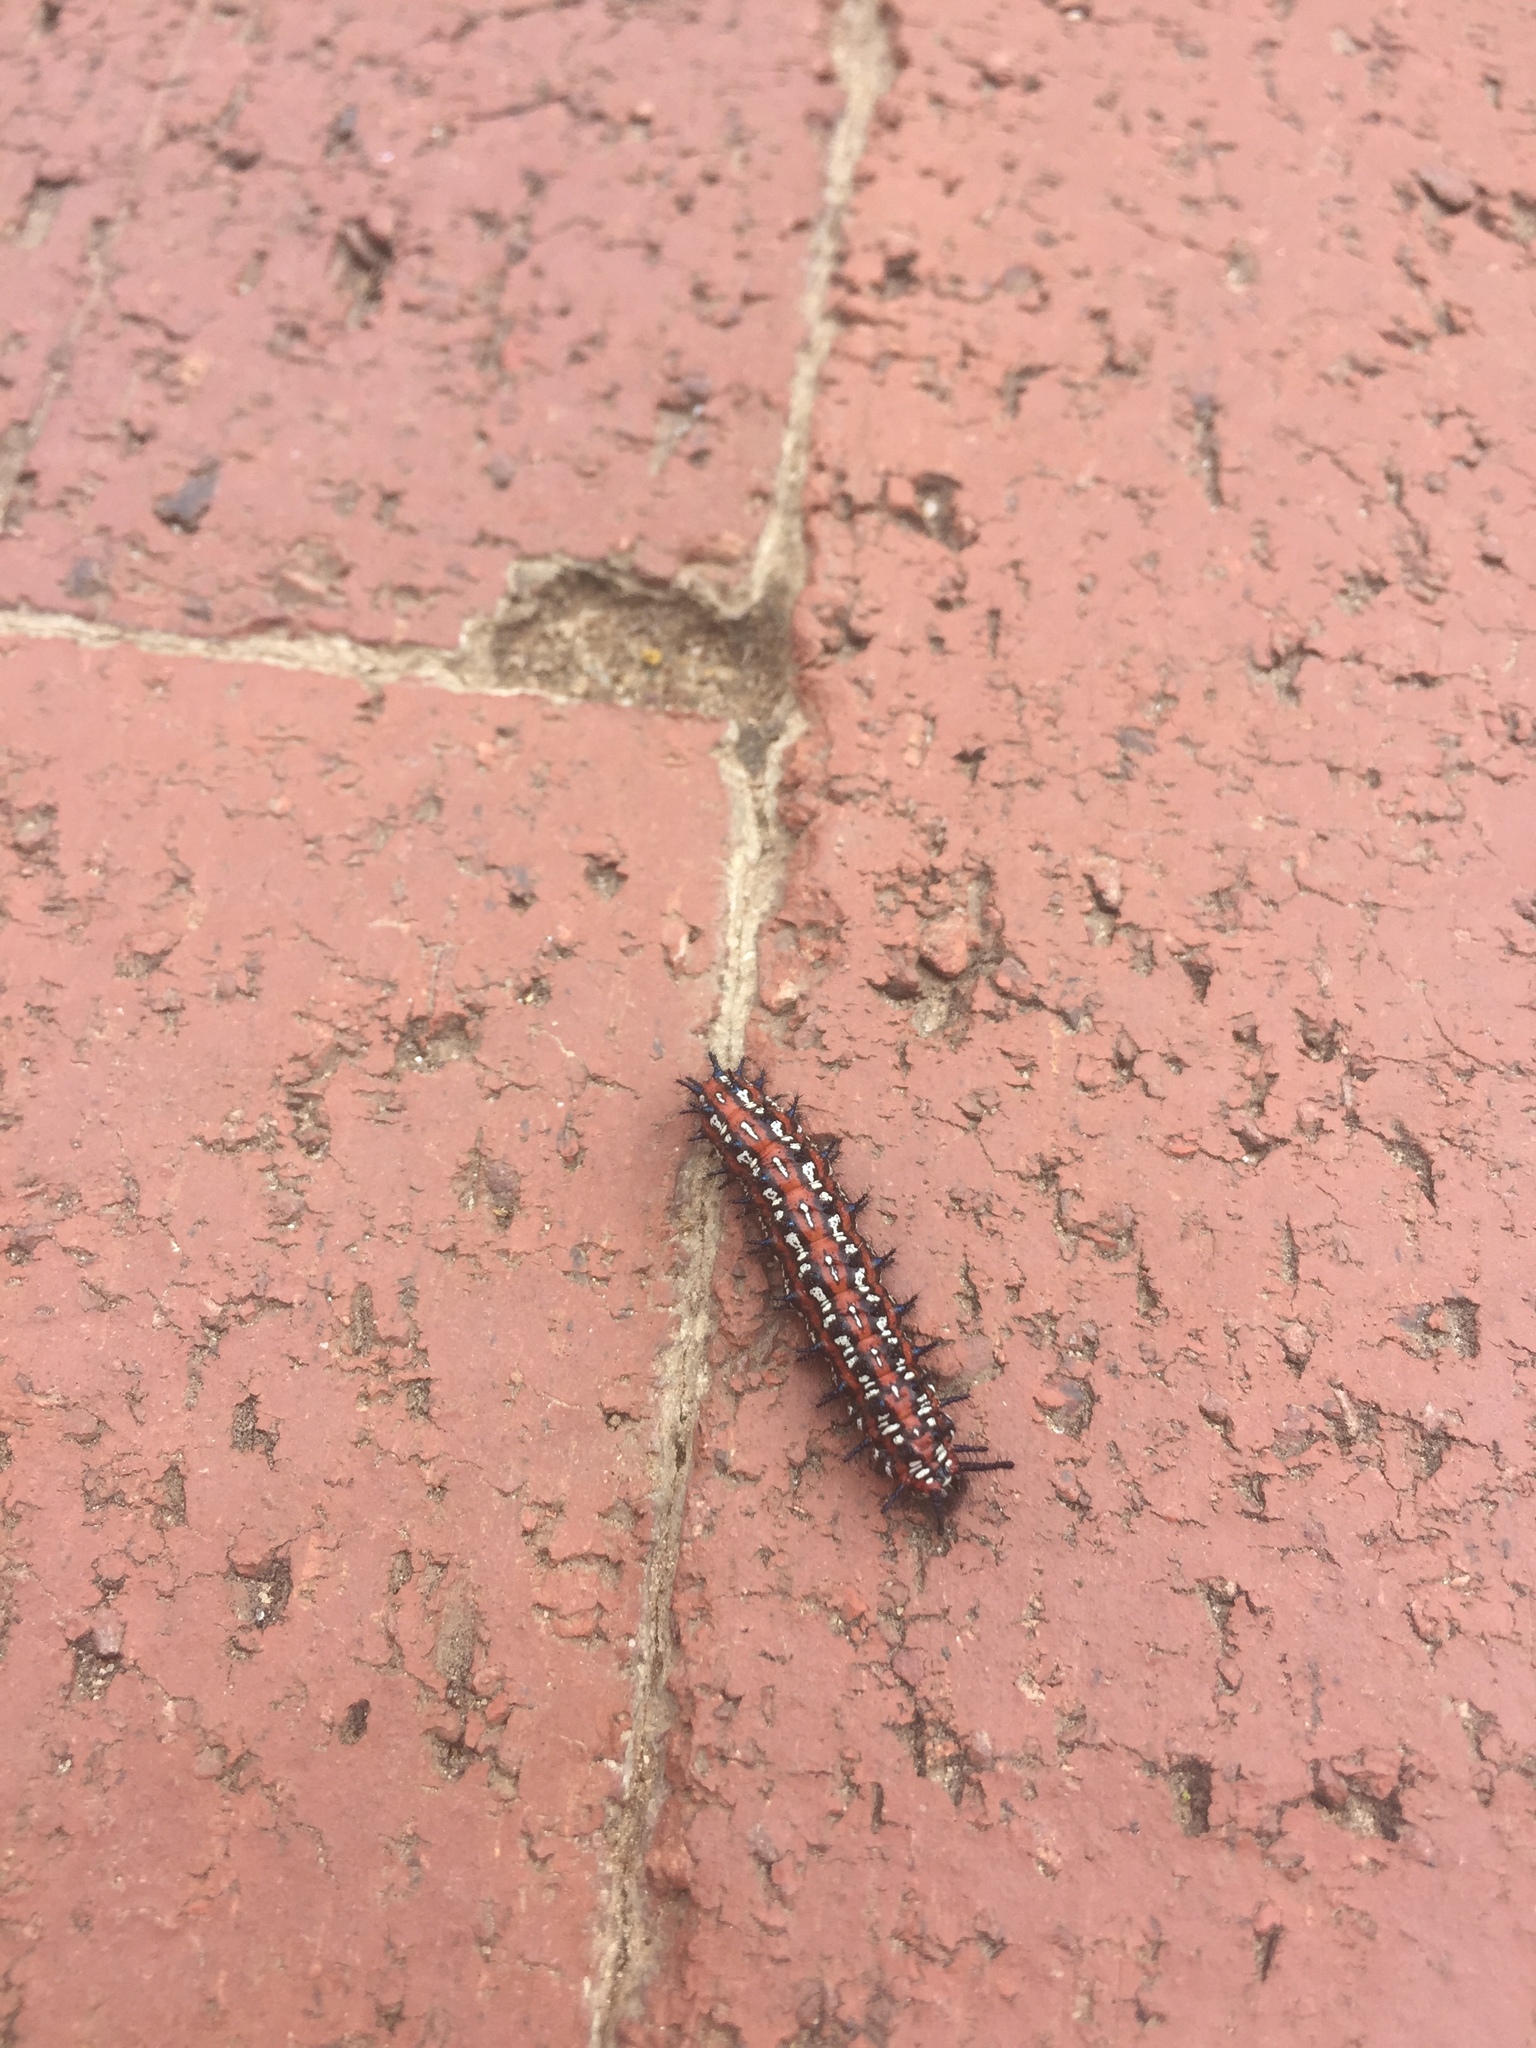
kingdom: Animalia
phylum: Arthropoda
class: Insecta
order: Lepidoptera
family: Nymphalidae
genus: Euptoieta
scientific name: Euptoieta claudia
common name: Variegated fritillary
